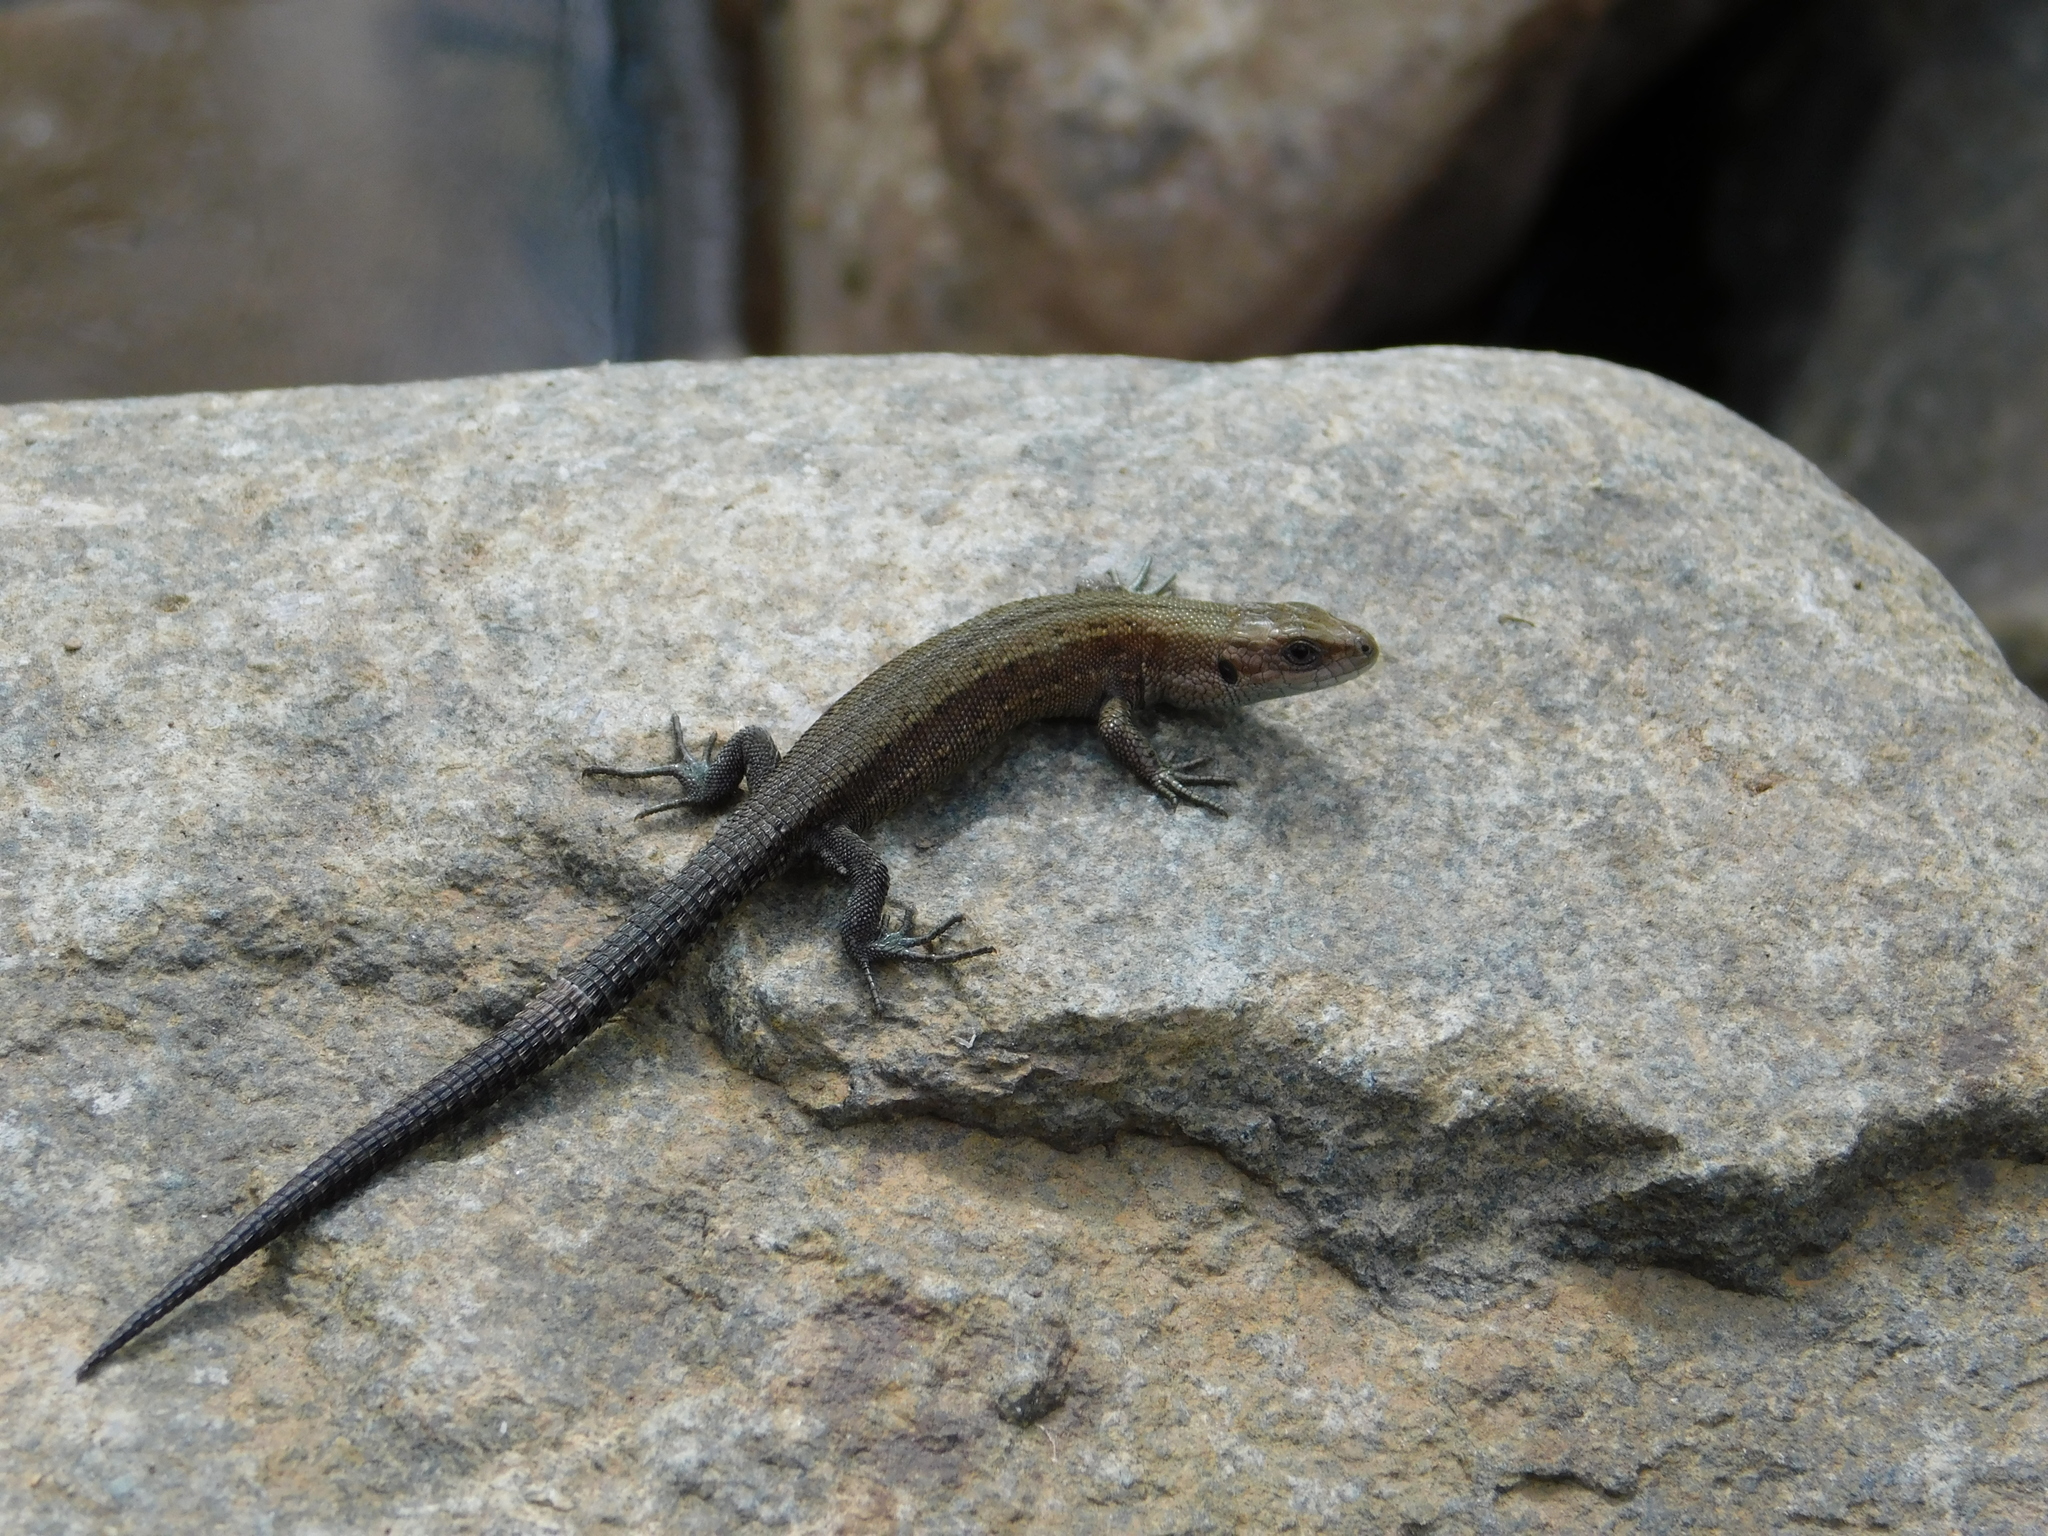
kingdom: Animalia
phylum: Chordata
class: Squamata
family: Lacertidae
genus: Zootoca
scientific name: Zootoca vivipara
